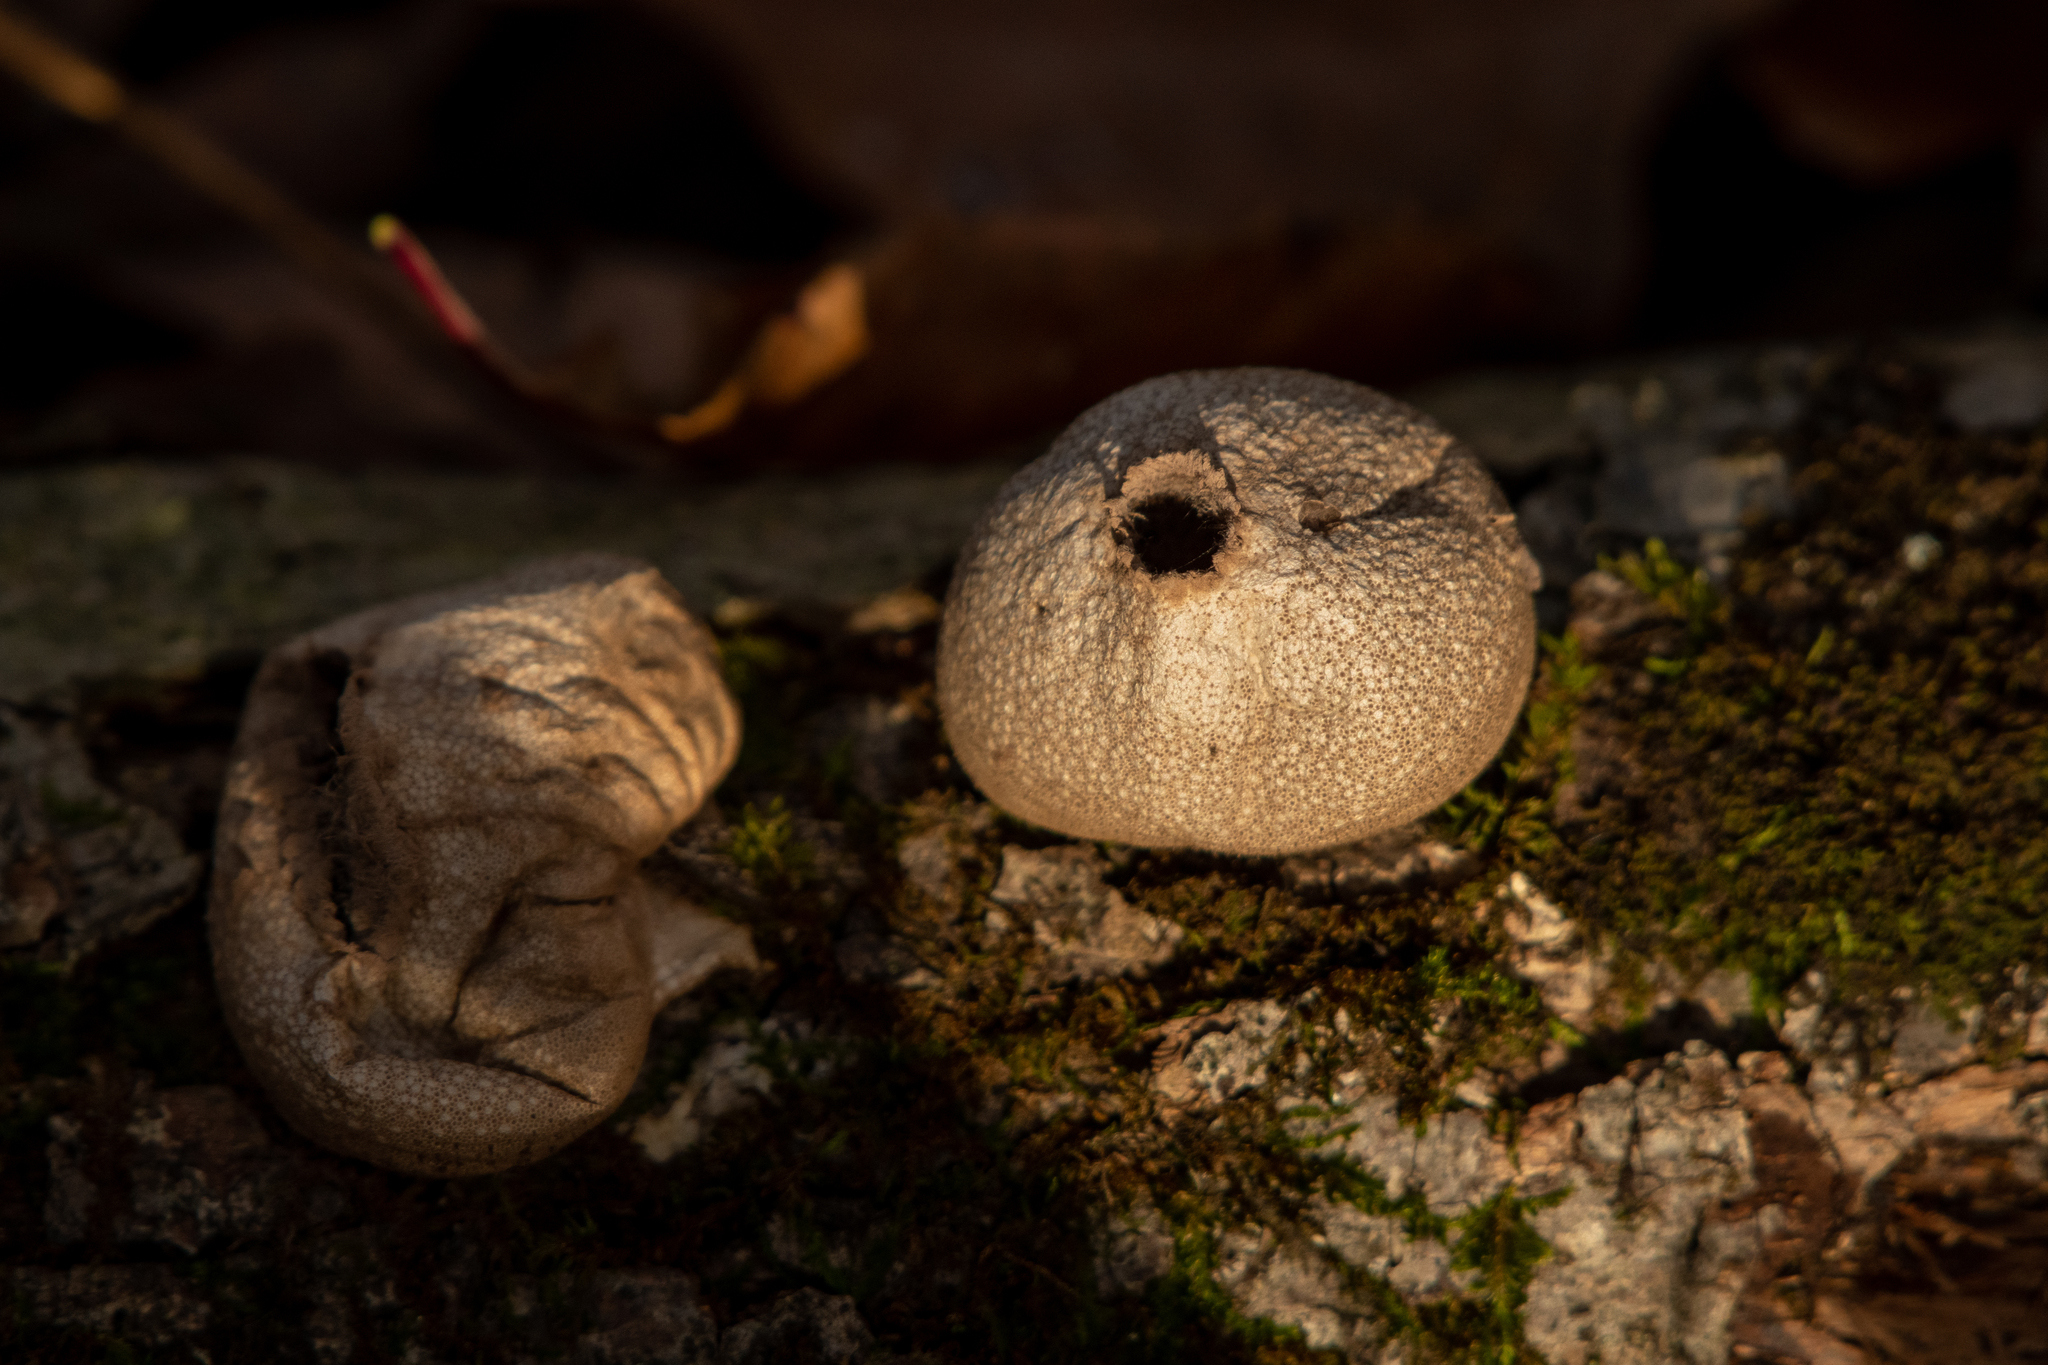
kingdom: Fungi
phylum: Basidiomycota
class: Agaricomycetes
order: Agaricales
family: Lycoperdaceae
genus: Apioperdon
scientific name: Apioperdon pyriforme
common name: Pear-shaped puffball
